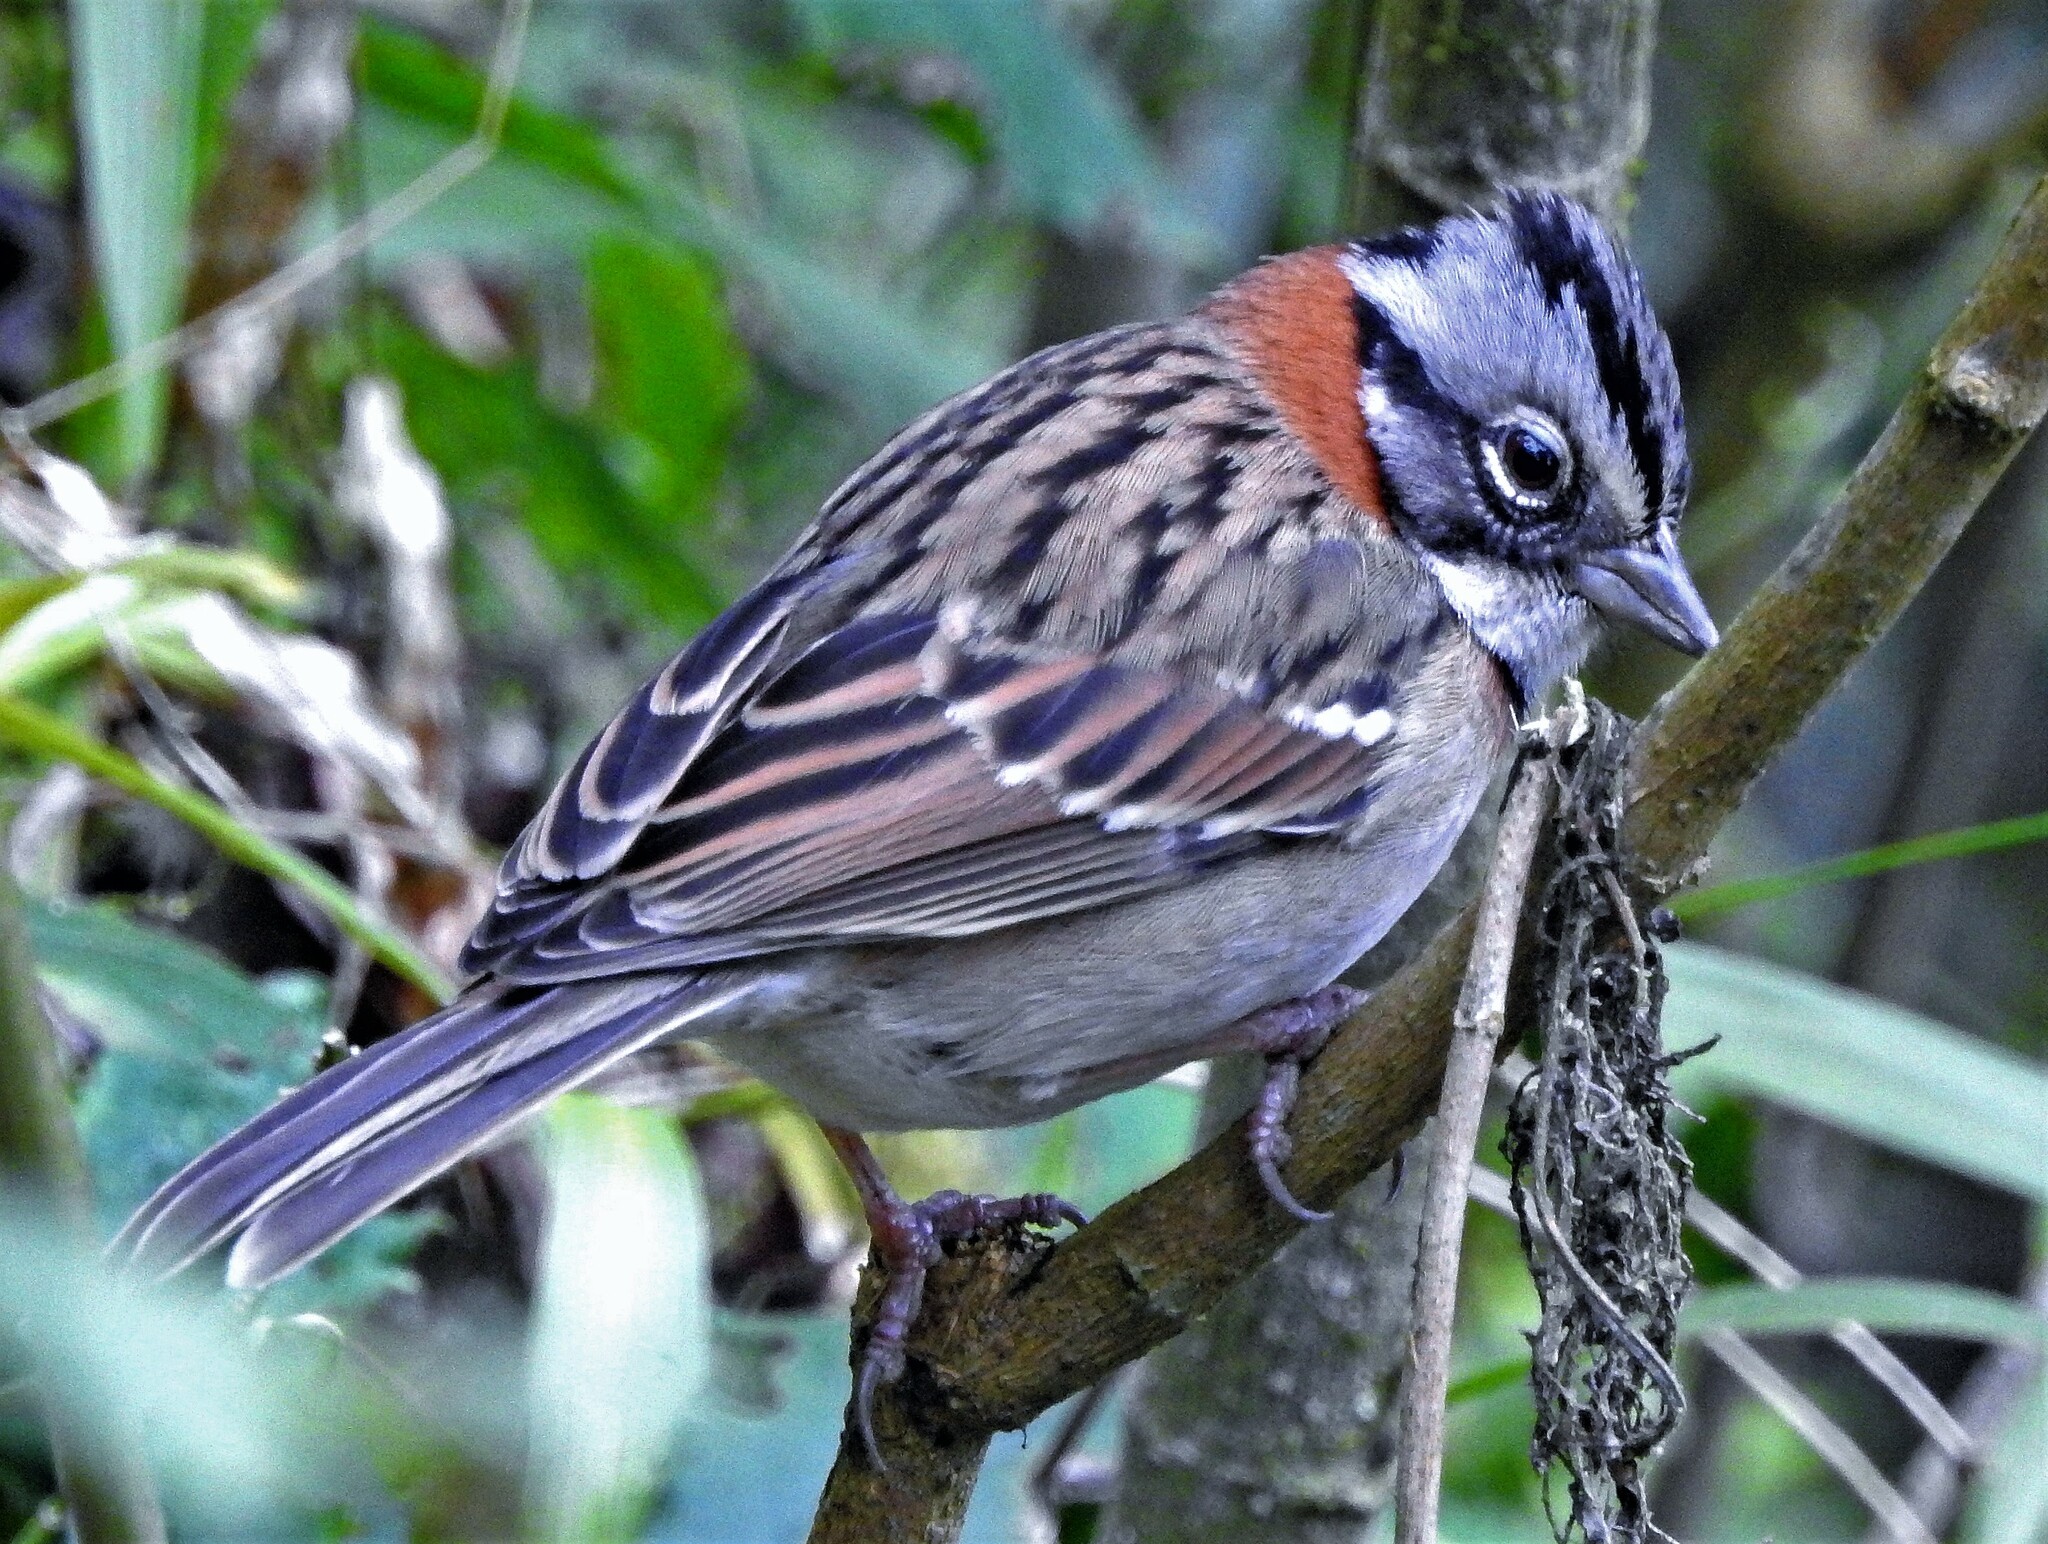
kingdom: Animalia
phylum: Chordata
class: Aves
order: Passeriformes
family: Passerellidae
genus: Zonotrichia
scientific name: Zonotrichia capensis
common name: Rufous-collared sparrow
